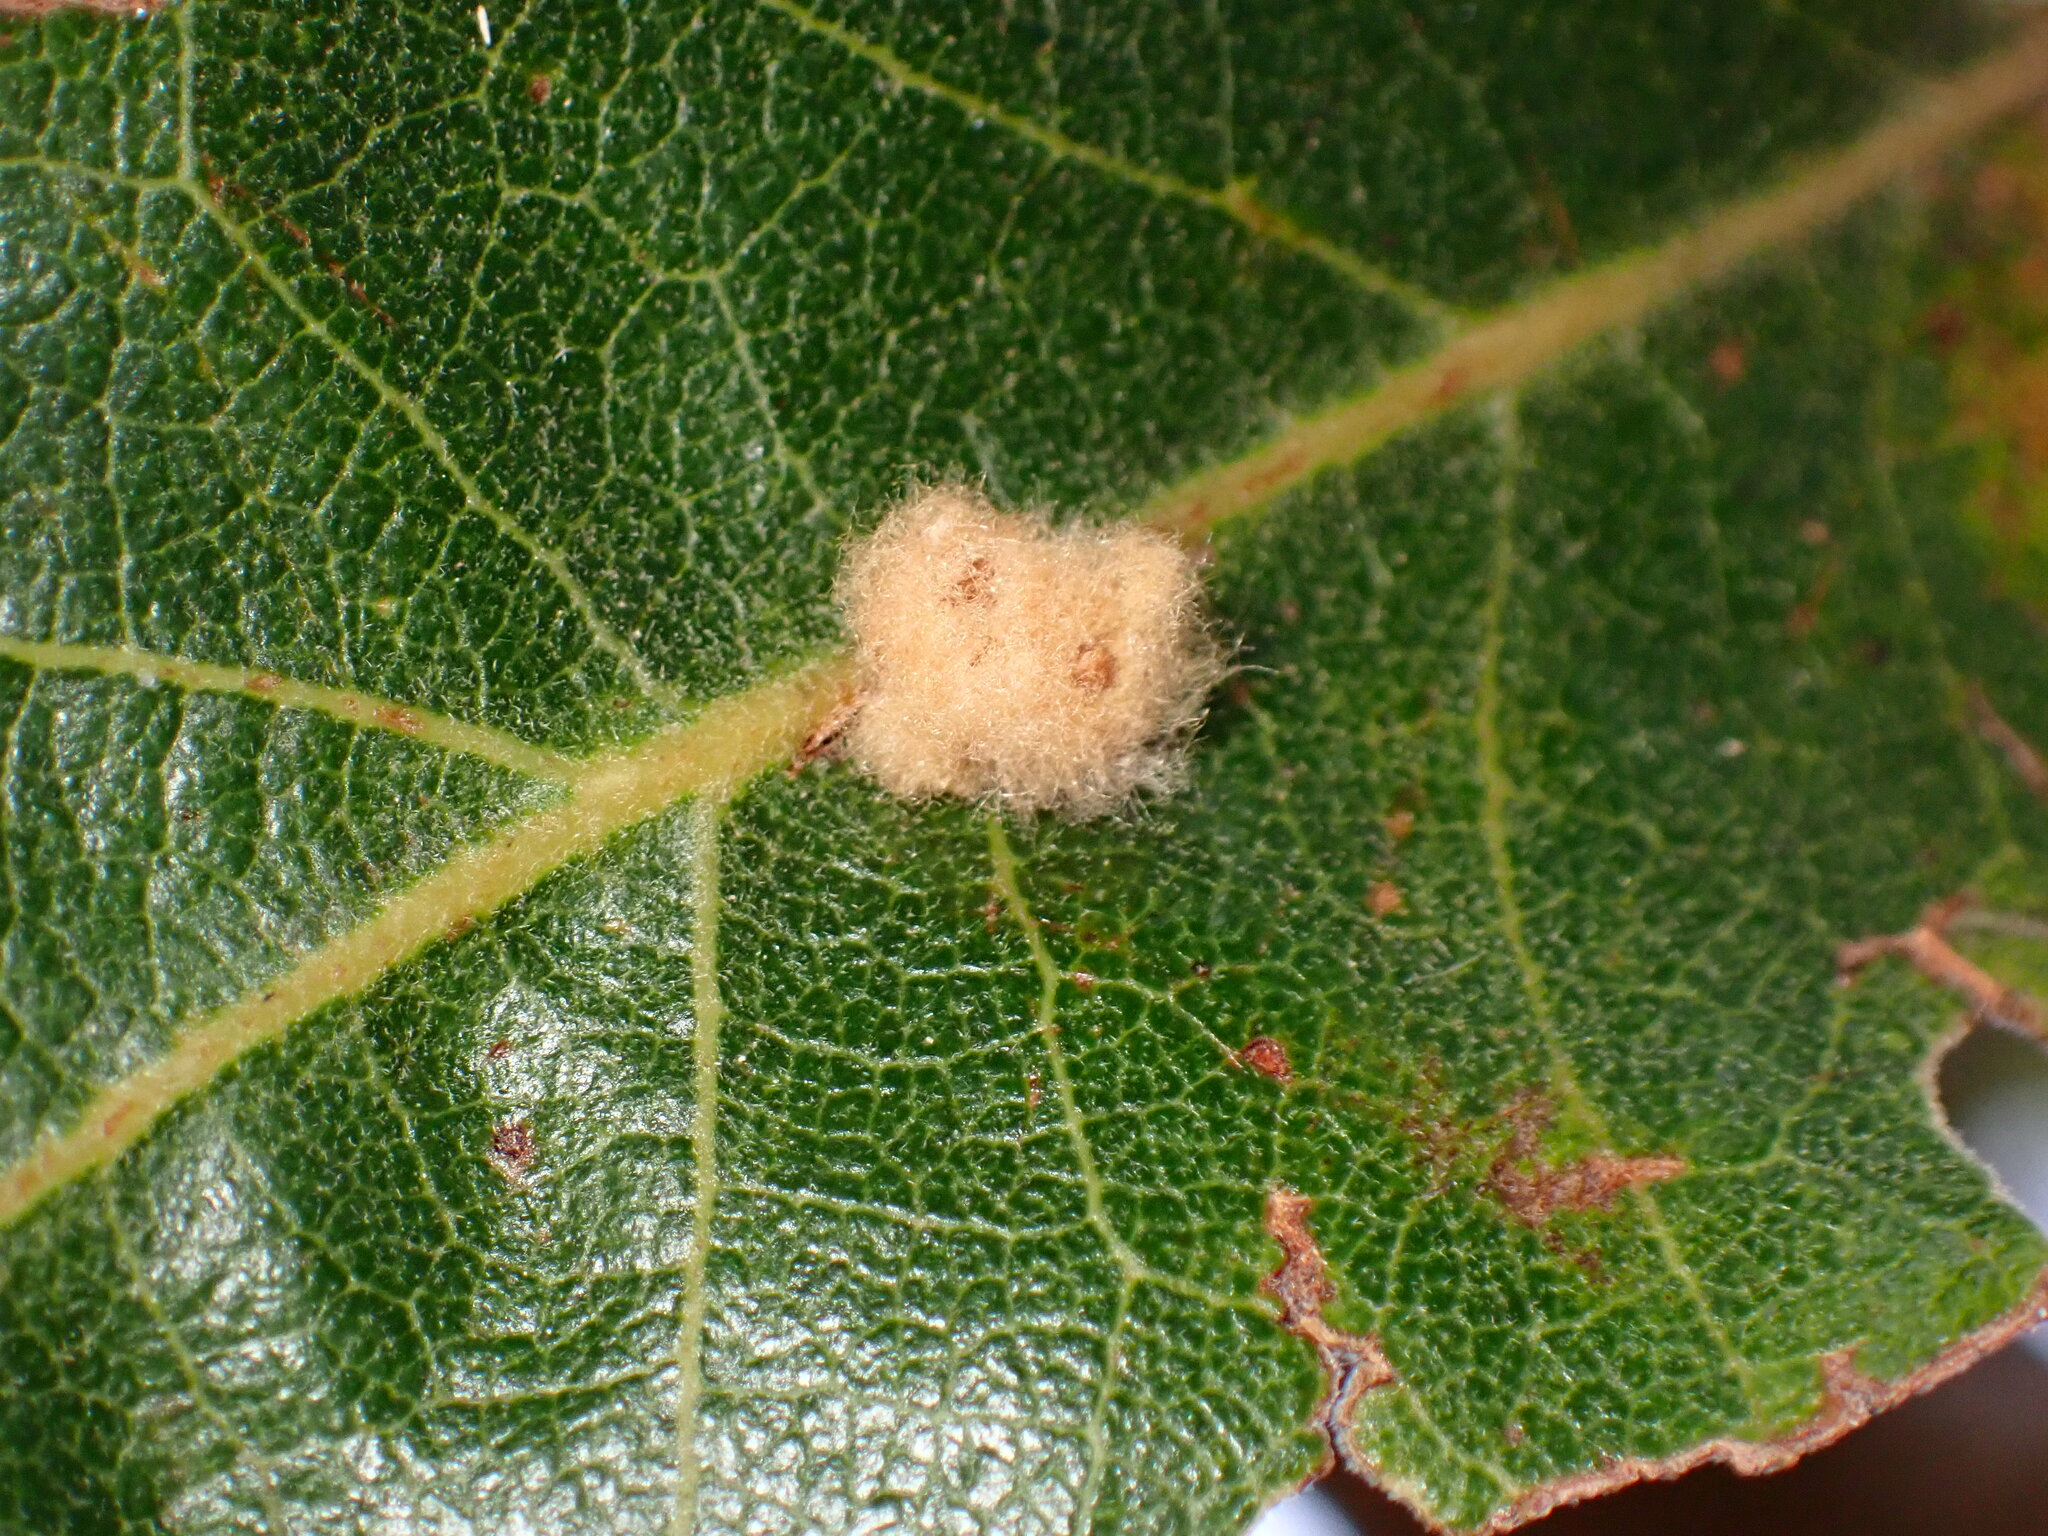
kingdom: Animalia
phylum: Arthropoda
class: Insecta
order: Hymenoptera
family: Cynipidae
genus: Andricus
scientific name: Andricus Druon fullawayi
